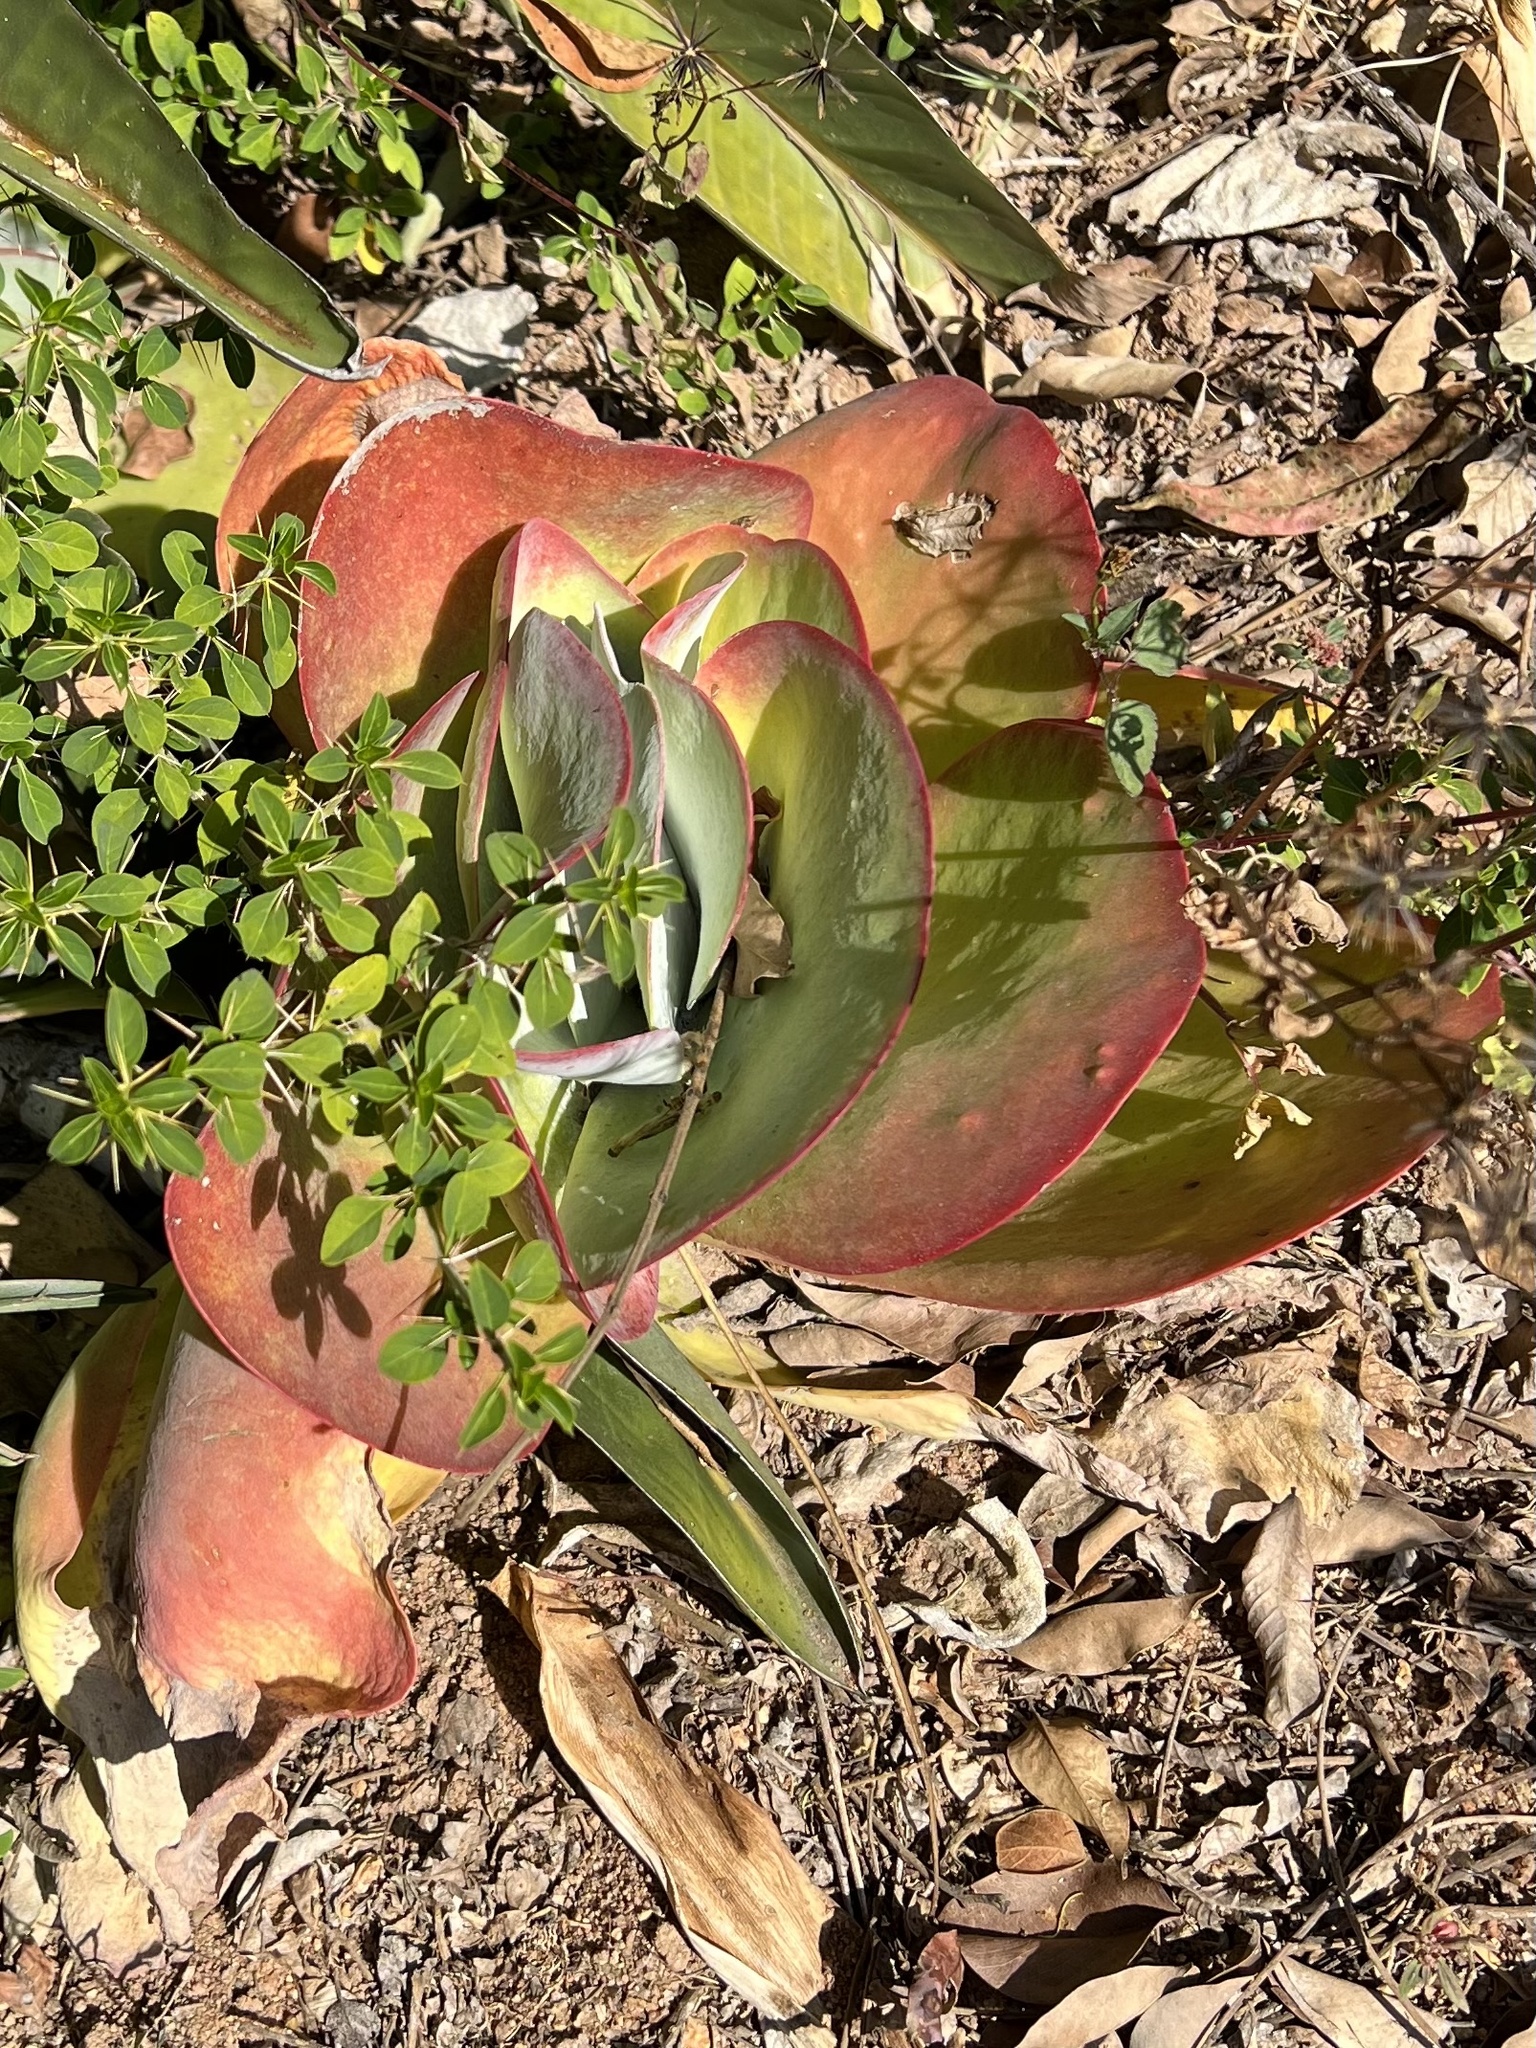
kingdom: Plantae
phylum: Tracheophyta
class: Magnoliopsida
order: Saxifragales
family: Crassulaceae
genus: Kalanchoe
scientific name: Kalanchoe luciae
